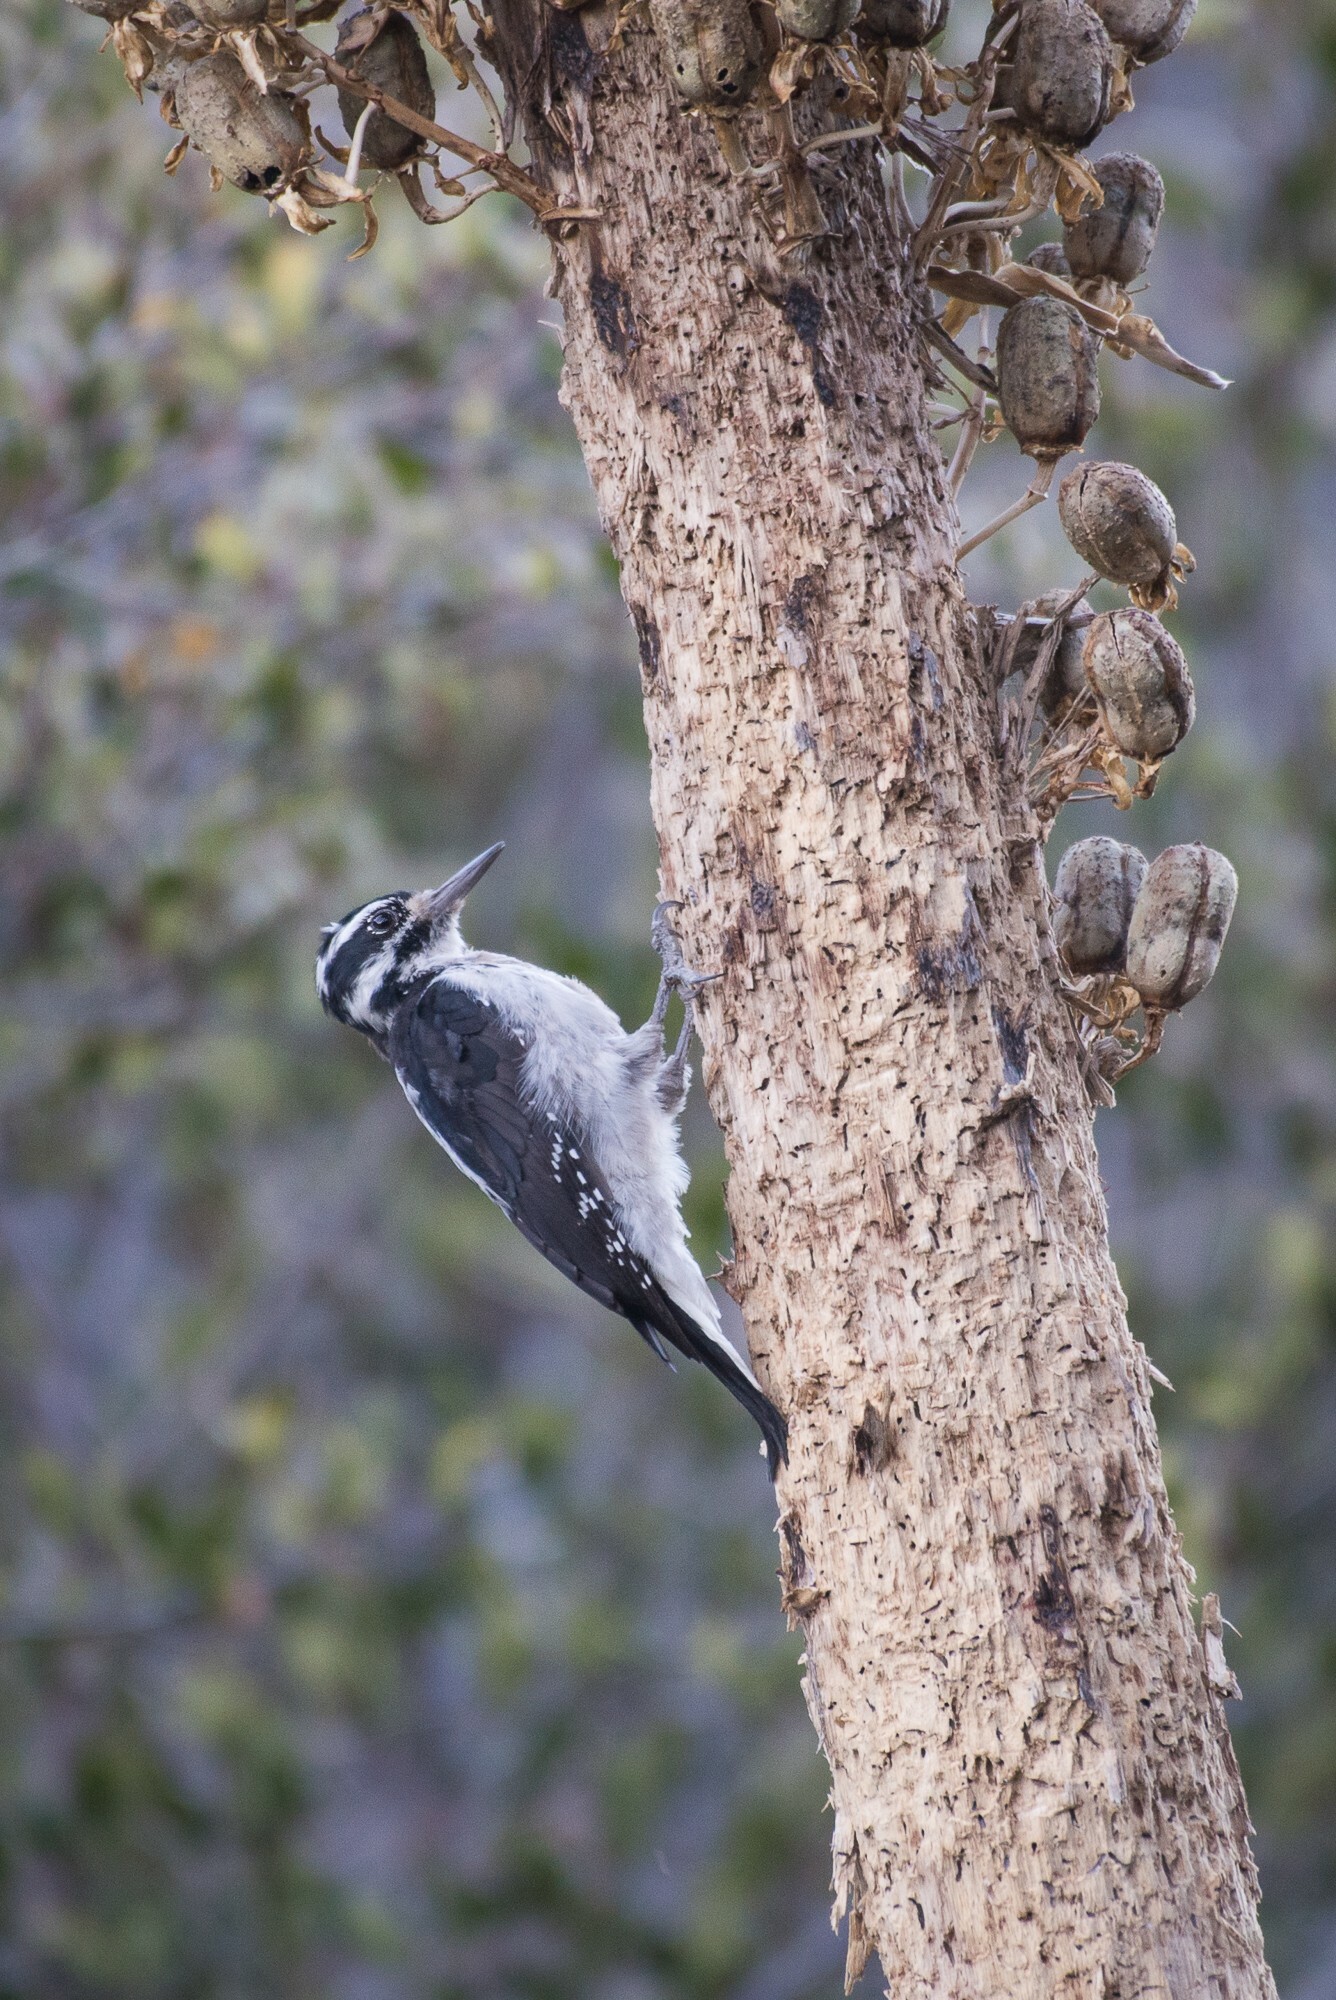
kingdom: Animalia
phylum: Chordata
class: Aves
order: Piciformes
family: Picidae
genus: Leuconotopicus
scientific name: Leuconotopicus villosus
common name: Hairy woodpecker
